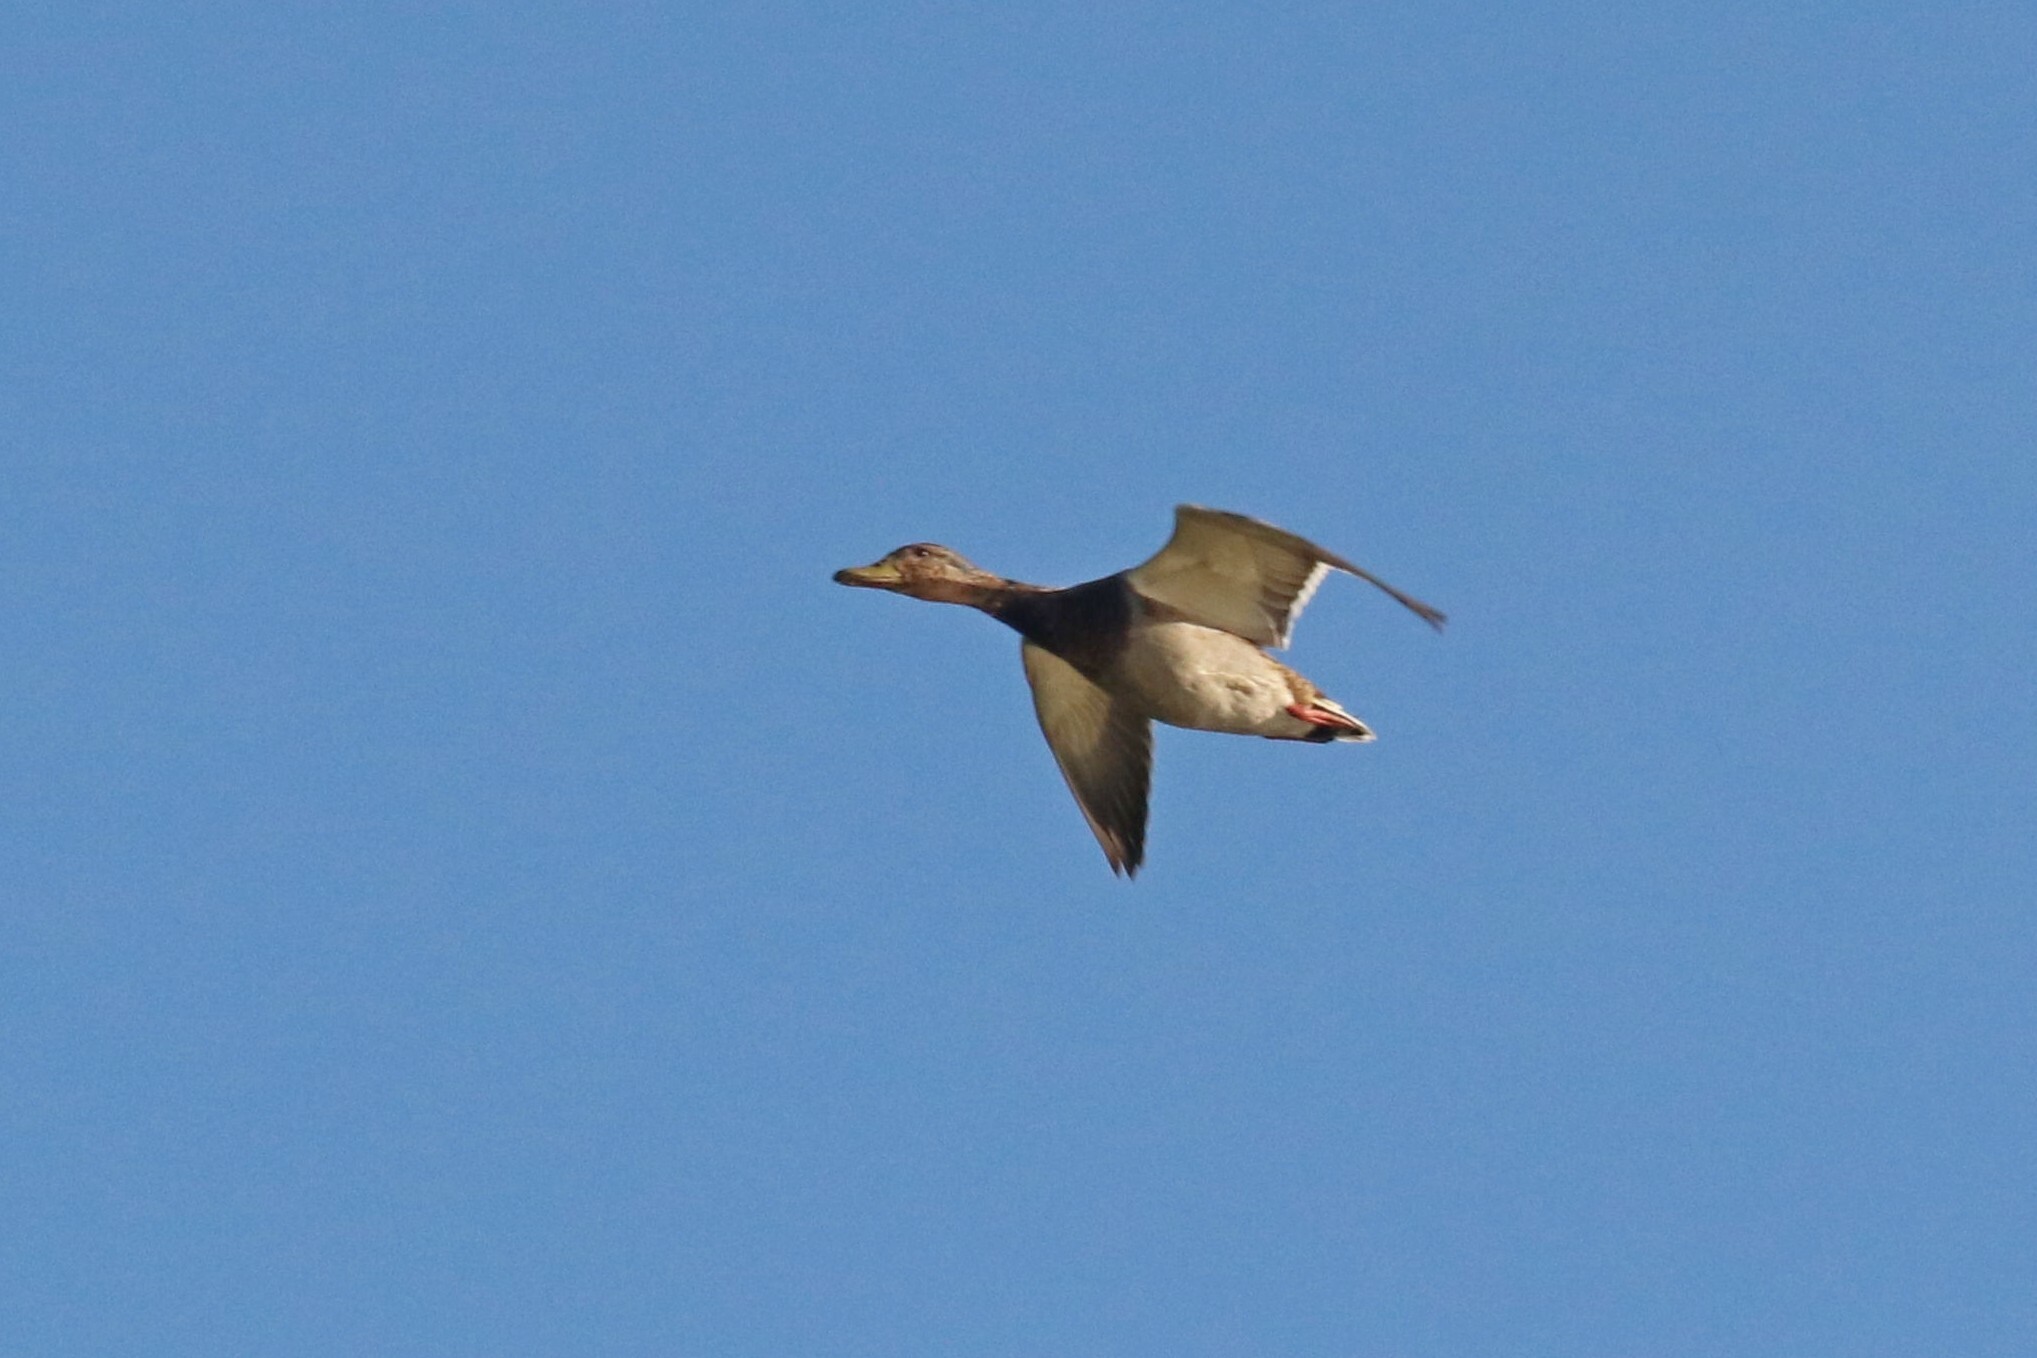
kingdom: Animalia
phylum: Chordata
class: Aves
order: Anseriformes
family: Anatidae
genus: Anas
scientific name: Anas platyrhynchos
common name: Mallard
